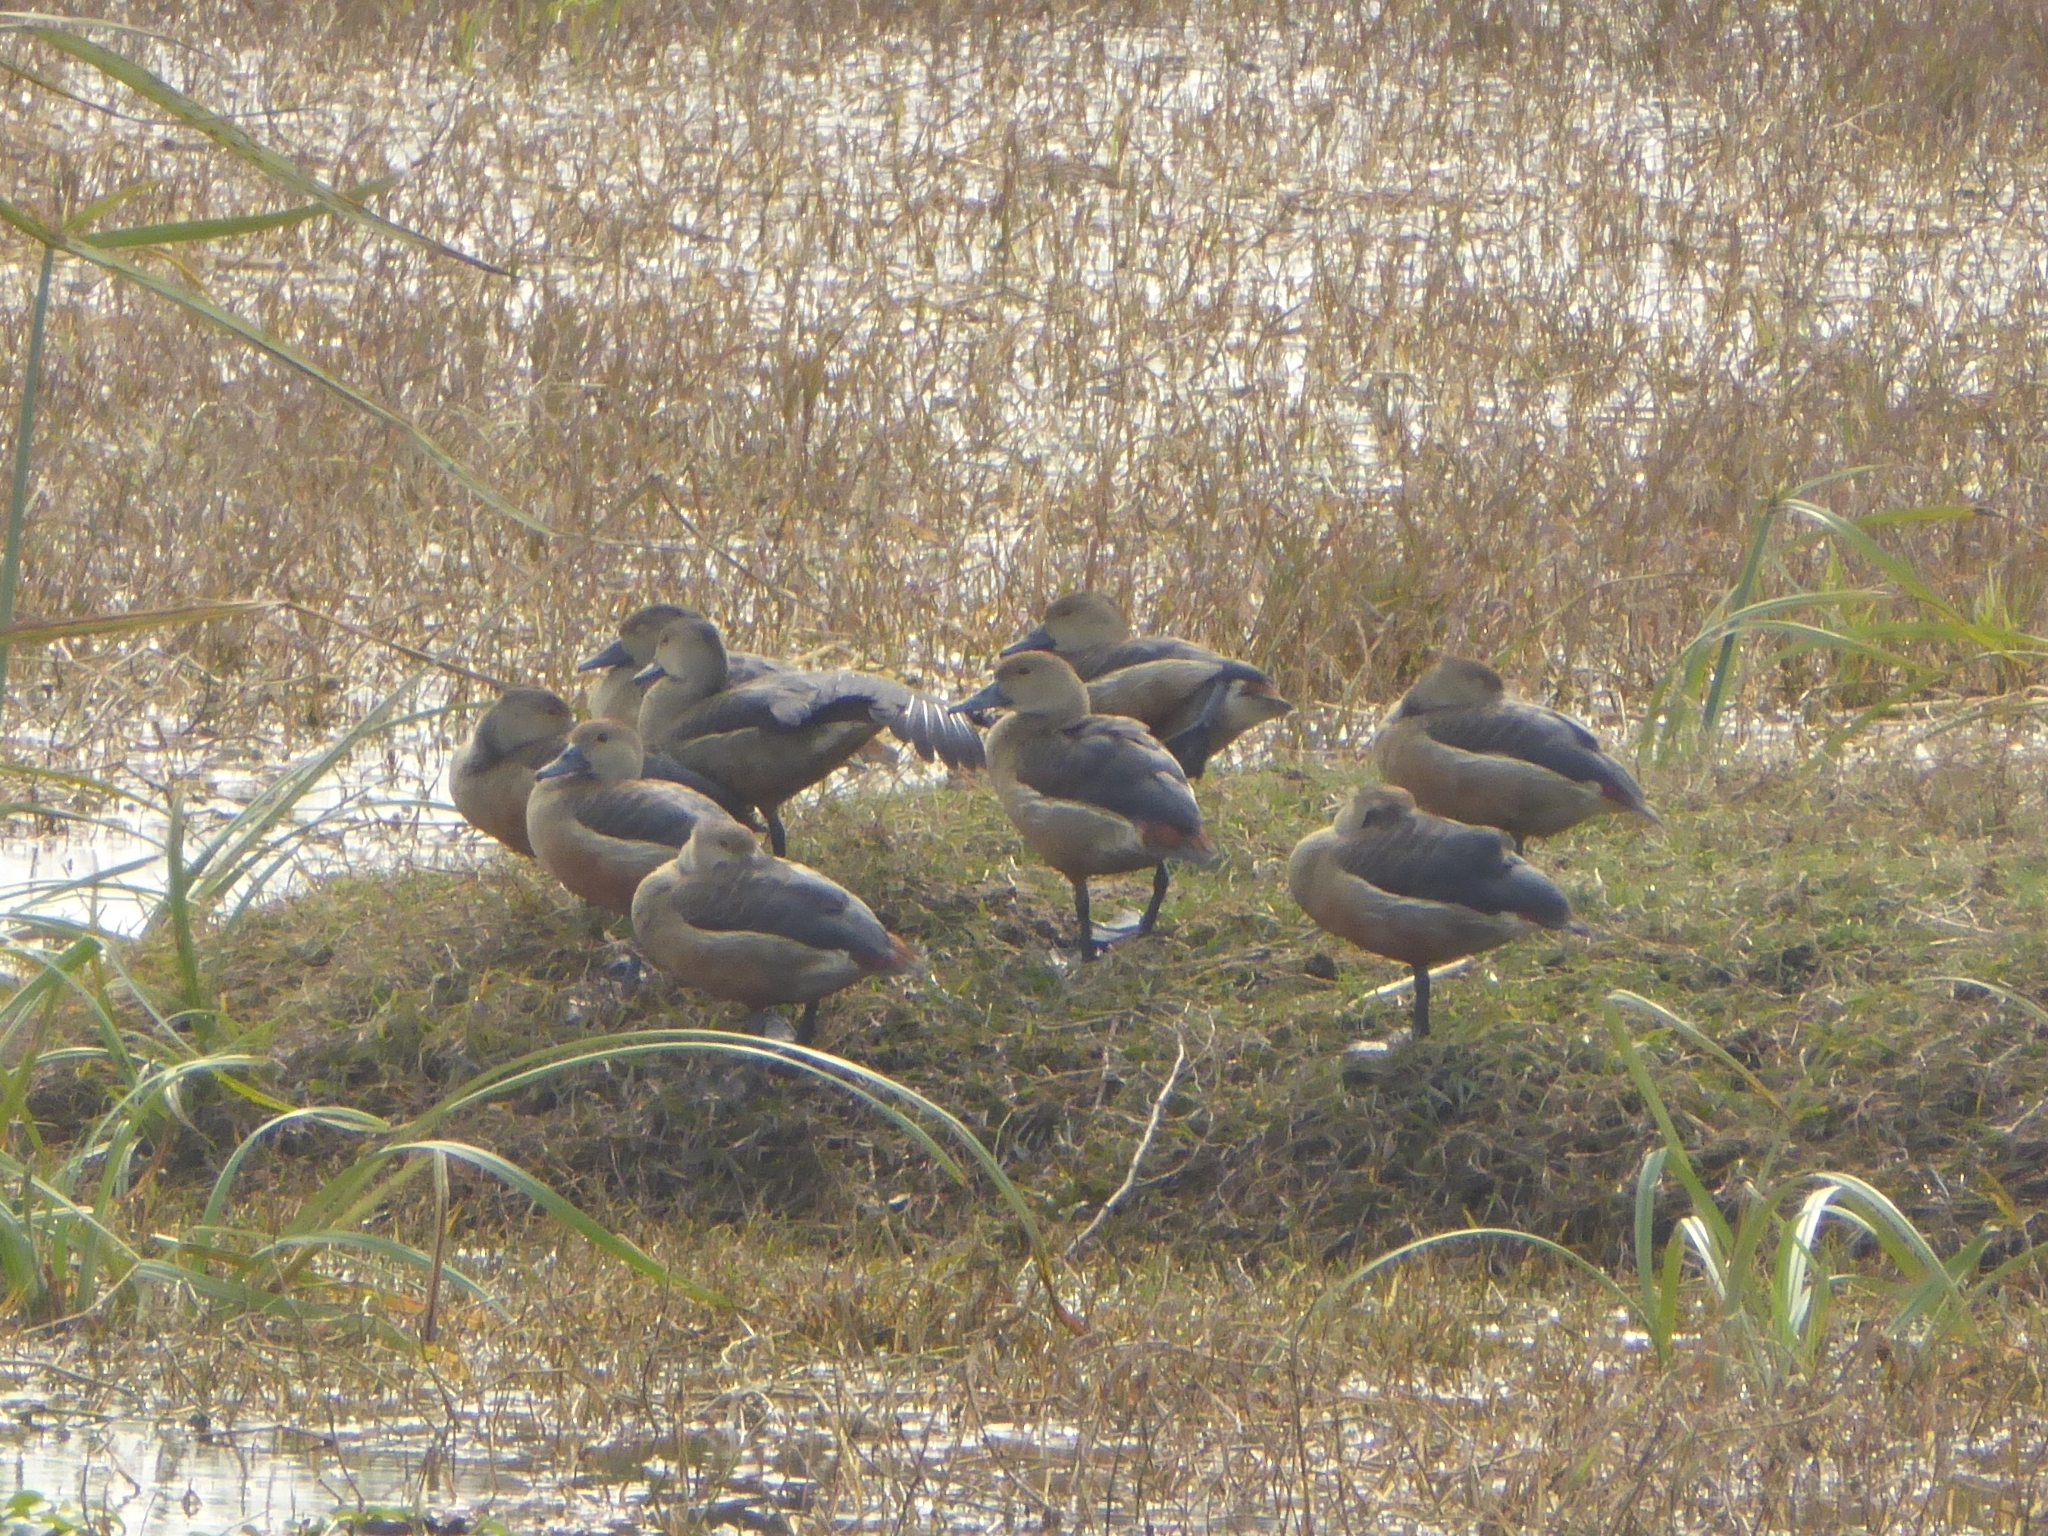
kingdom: Animalia
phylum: Chordata
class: Aves
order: Anseriformes
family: Anatidae
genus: Dendrocygna
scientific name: Dendrocygna javanica
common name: Lesser whistling-duck
